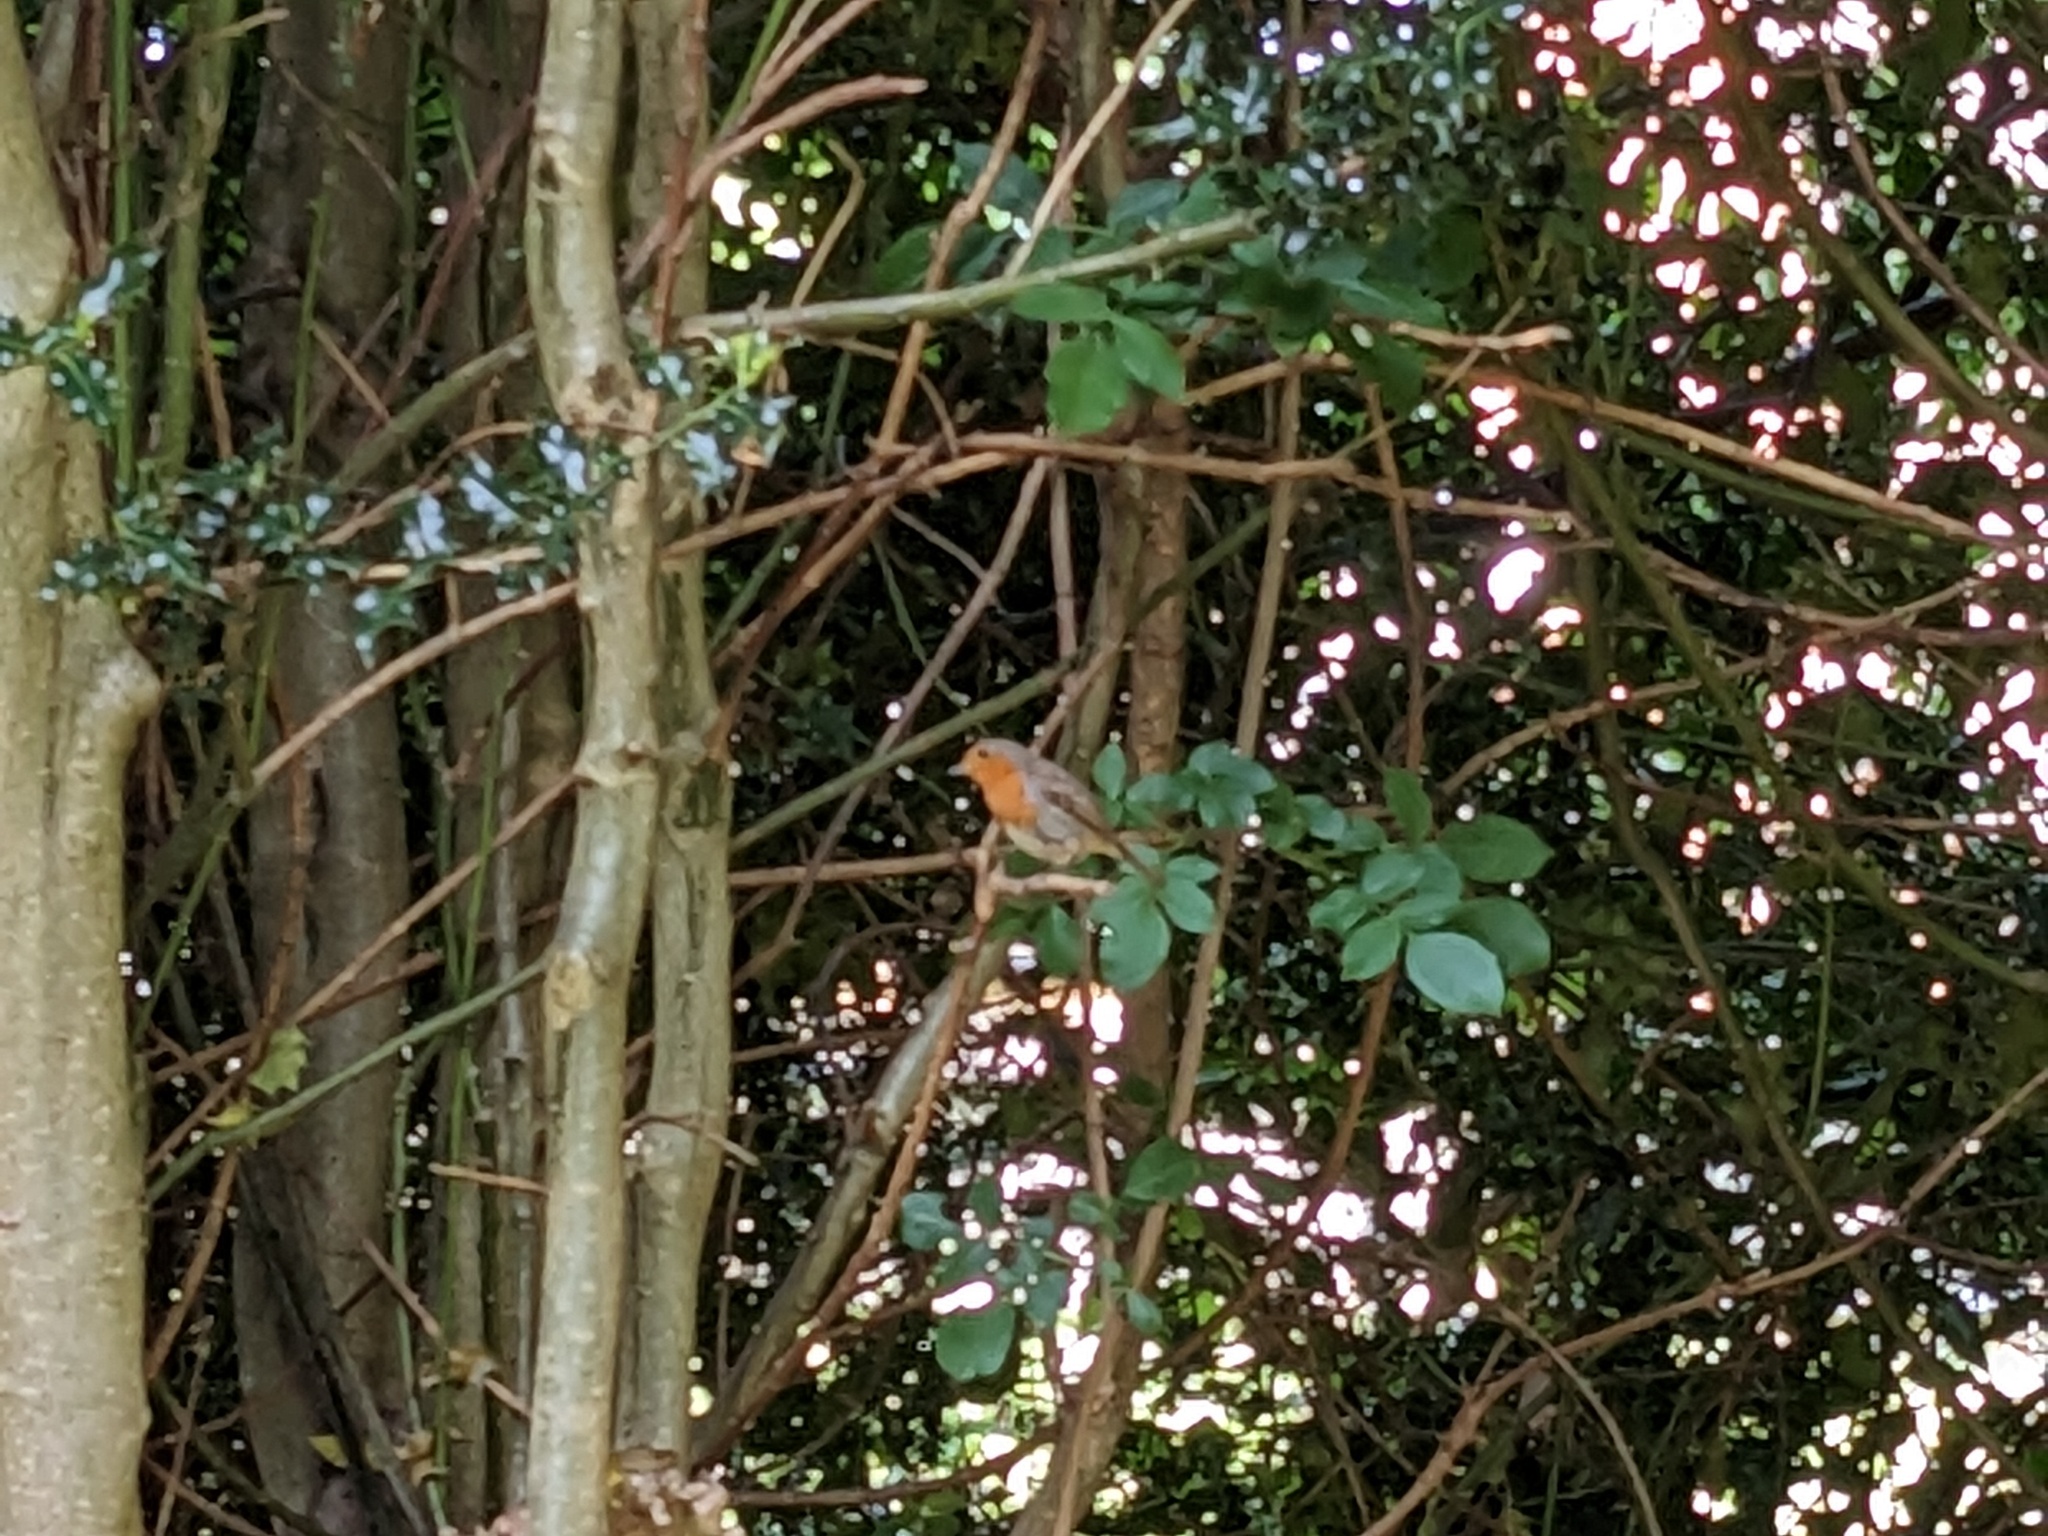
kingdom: Animalia
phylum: Chordata
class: Aves
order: Passeriformes
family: Muscicapidae
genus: Erithacus
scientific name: Erithacus rubecula
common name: European robin
